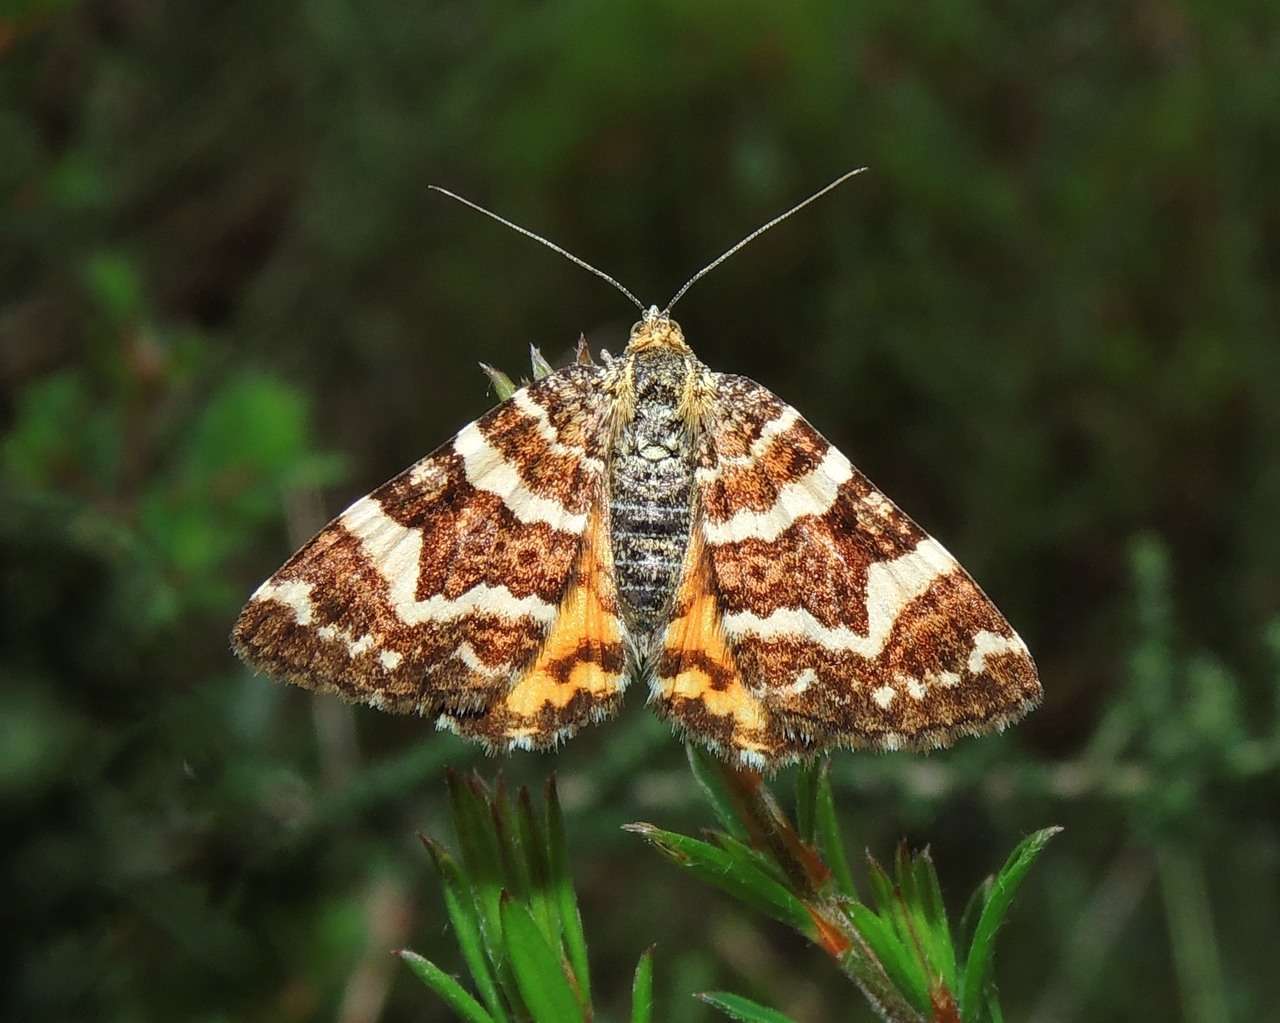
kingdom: Animalia
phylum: Arthropoda
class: Insecta
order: Lepidoptera
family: Geometridae
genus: Chrysolarentia
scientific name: Chrysolarentia polycarpa
